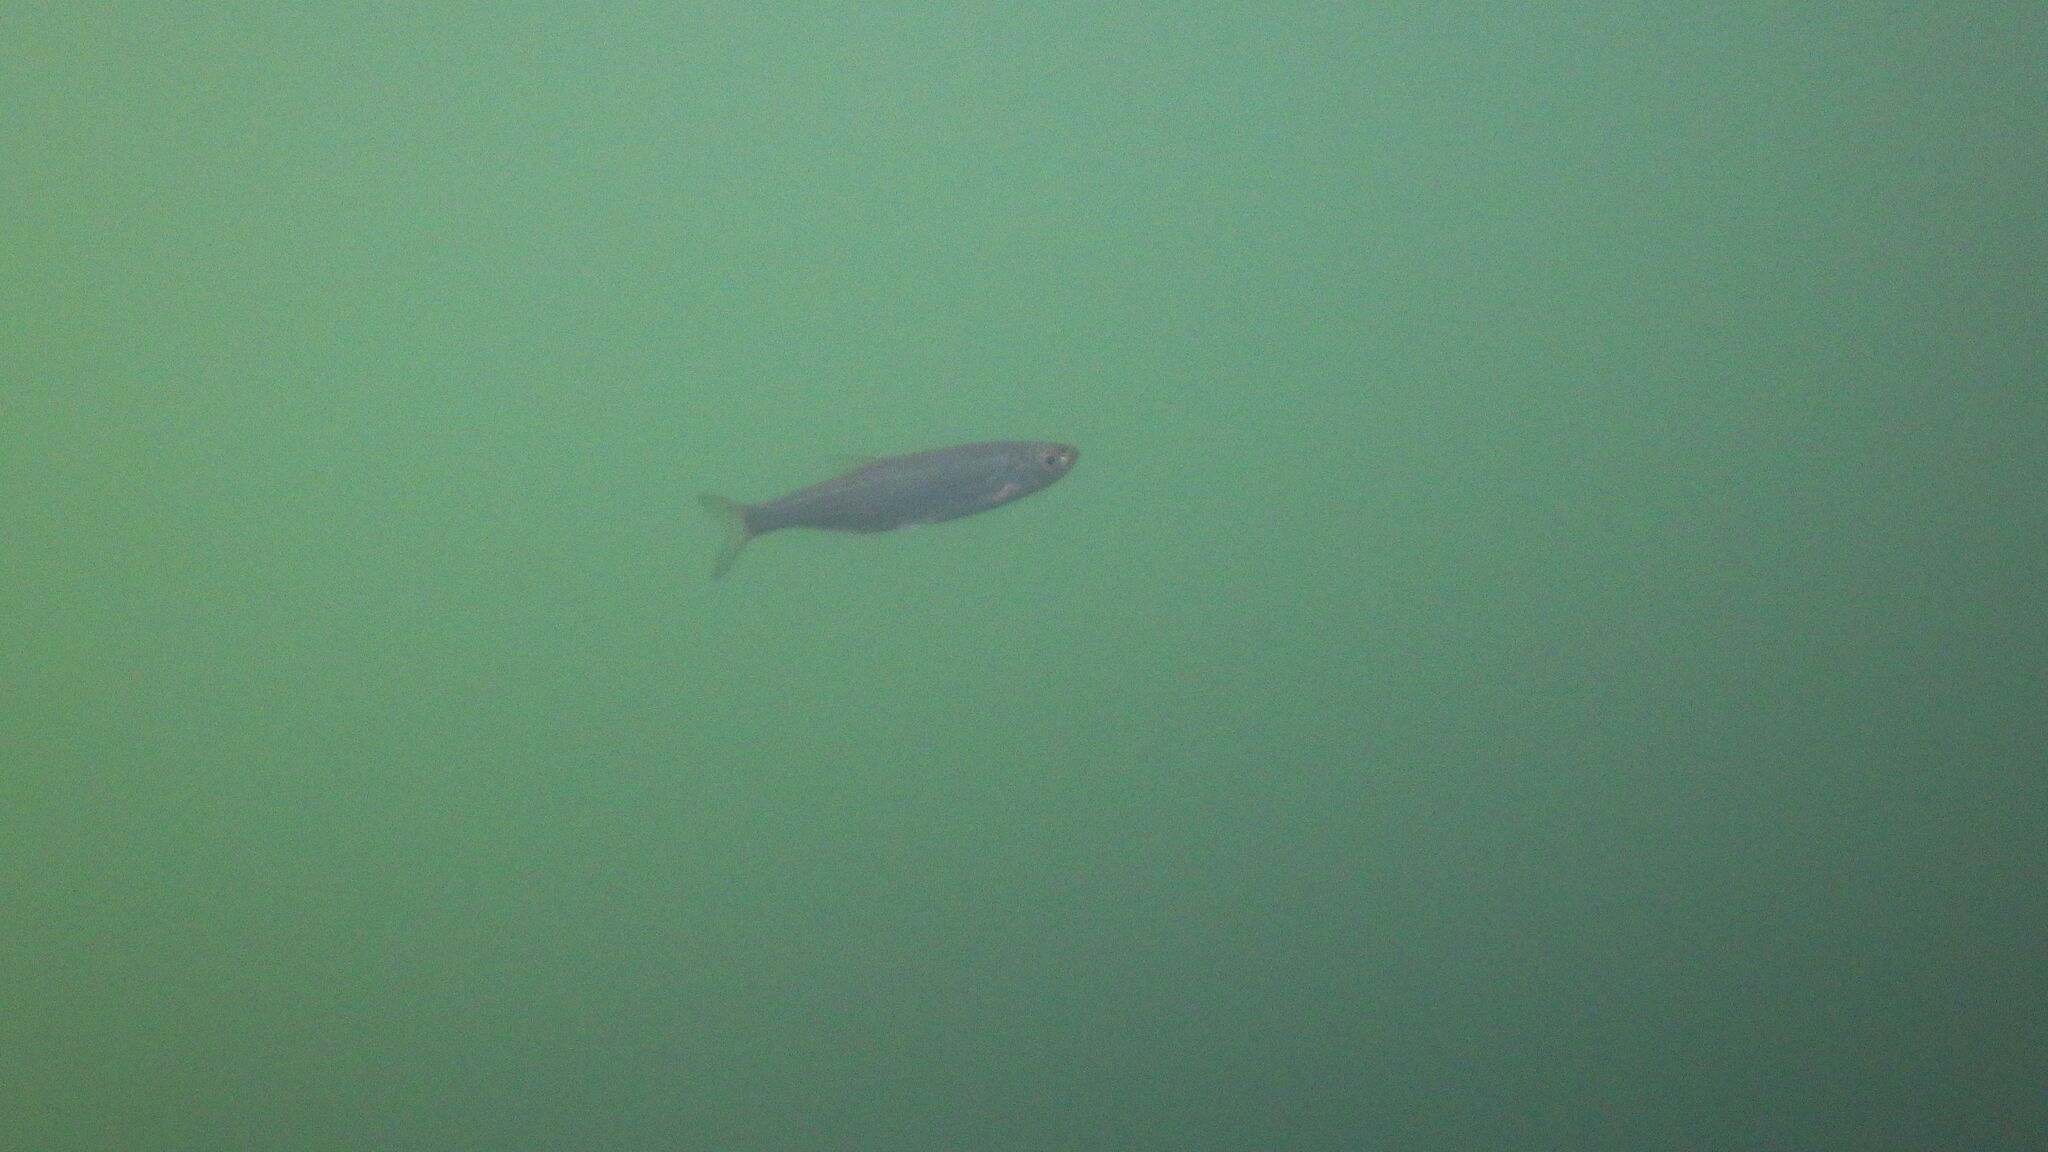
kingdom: Animalia
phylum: Chordata
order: Cypriniformes
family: Cyprinidae
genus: Alburnus
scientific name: Alburnus alburnus
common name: Bleak
